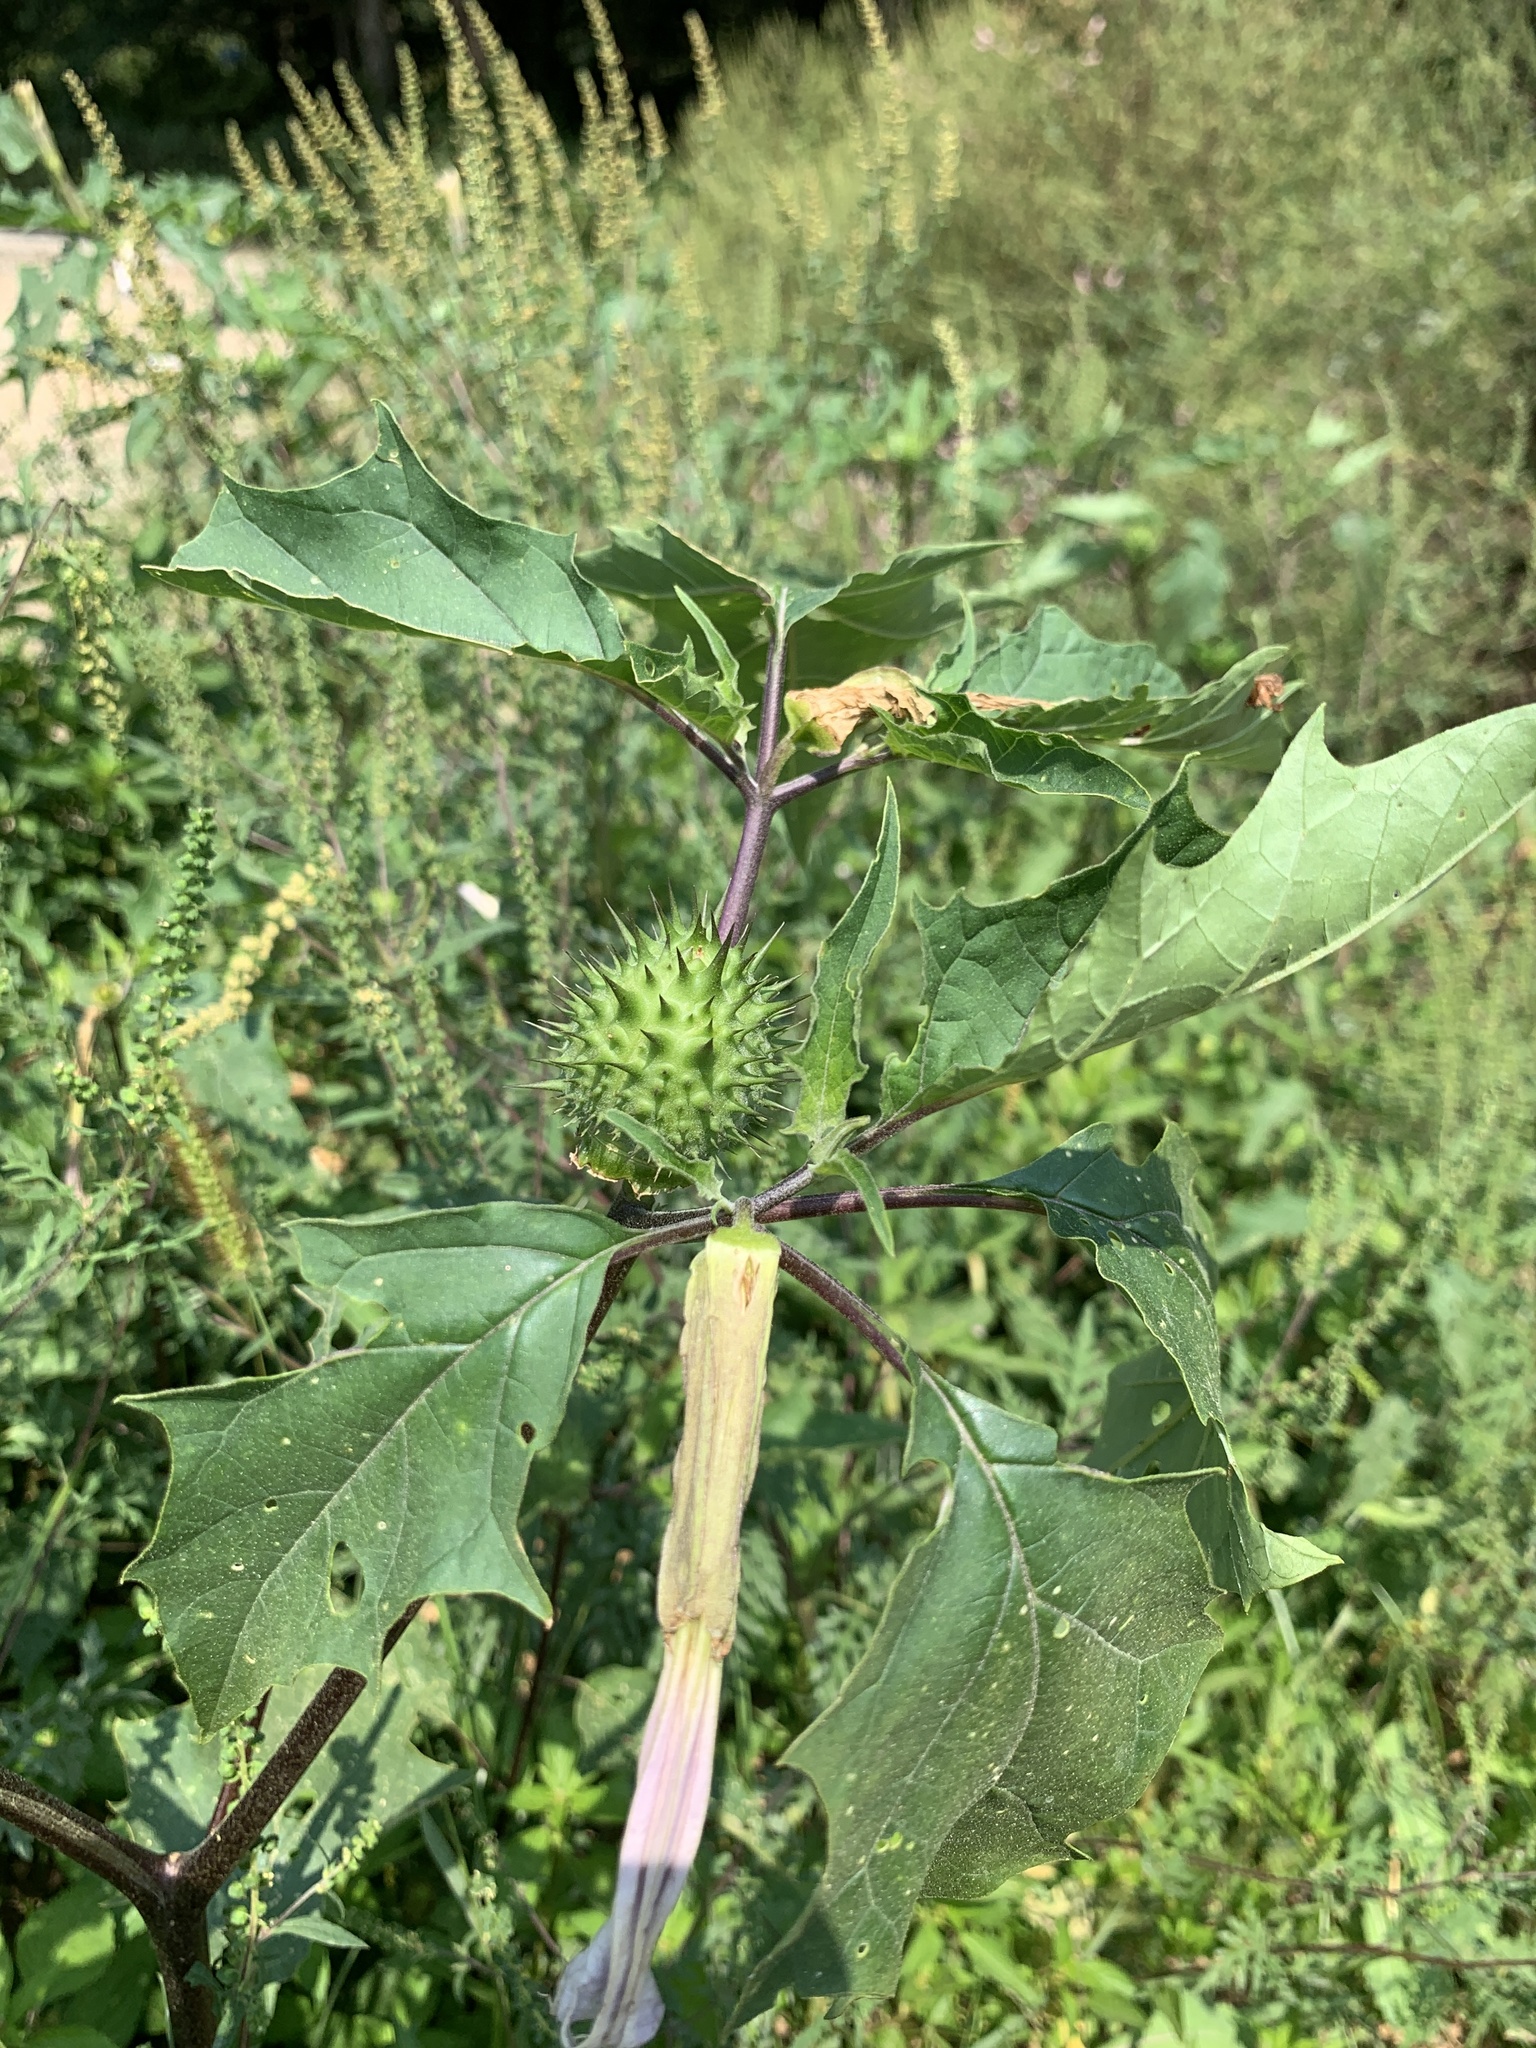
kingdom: Plantae
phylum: Tracheophyta
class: Magnoliopsida
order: Solanales
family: Solanaceae
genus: Datura
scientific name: Datura stramonium
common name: Thorn-apple
